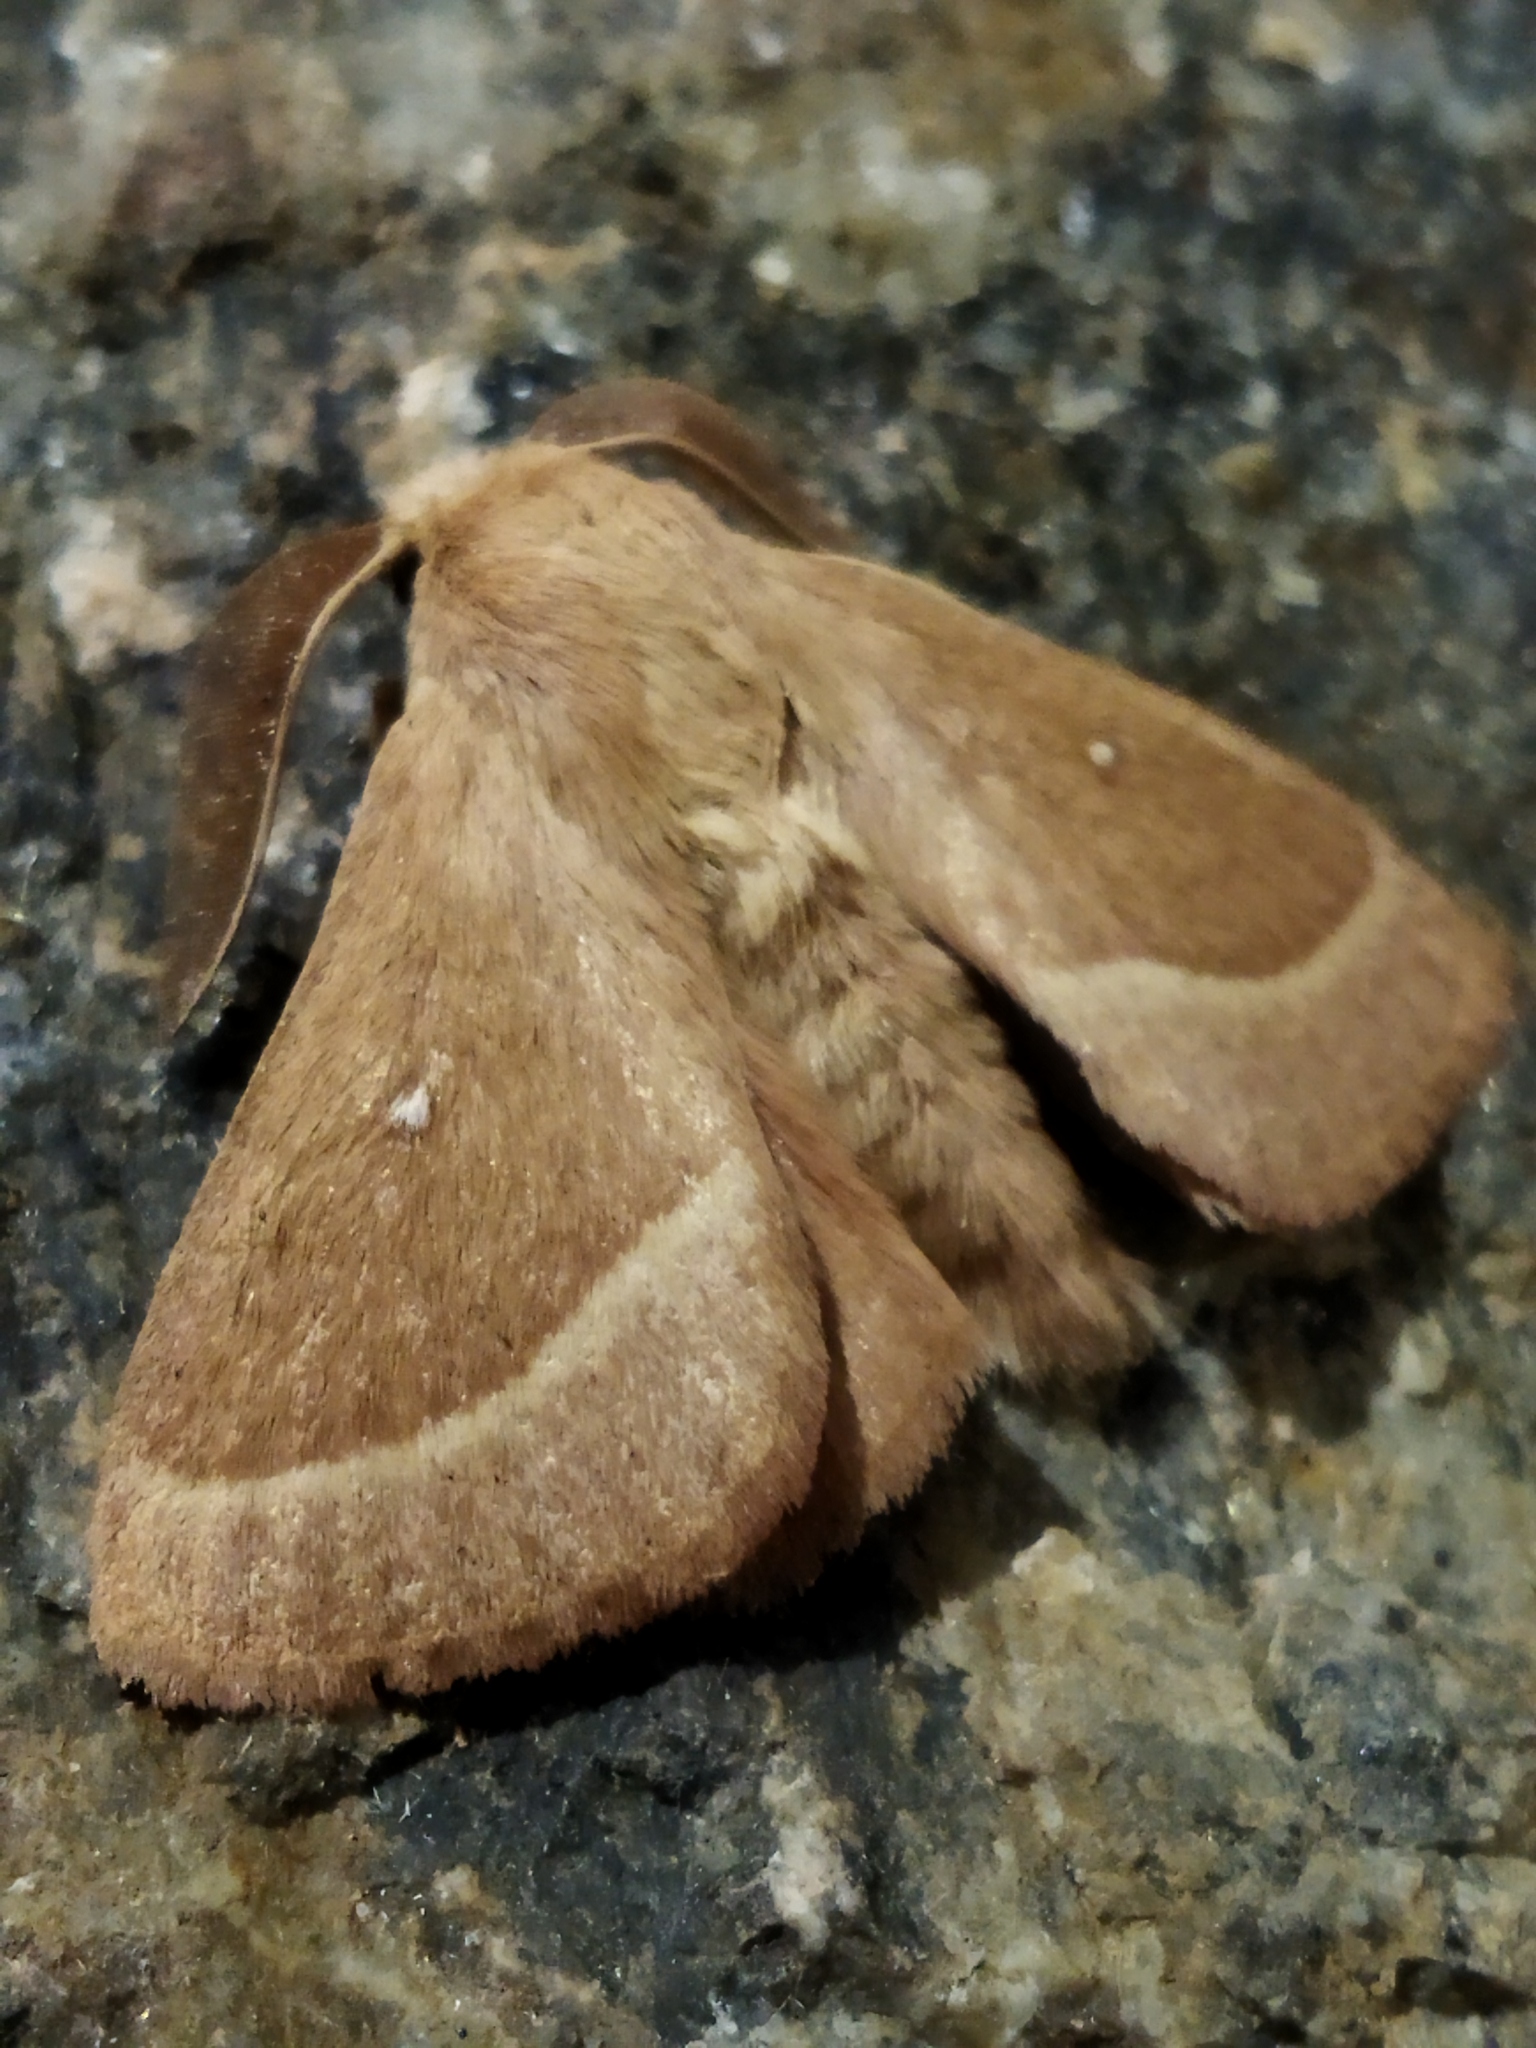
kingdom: Animalia
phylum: Arthropoda
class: Insecta
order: Lepidoptera
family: Lasiocampidae
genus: Lasiocampa
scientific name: Lasiocampa trifolii
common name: Grass eggar
